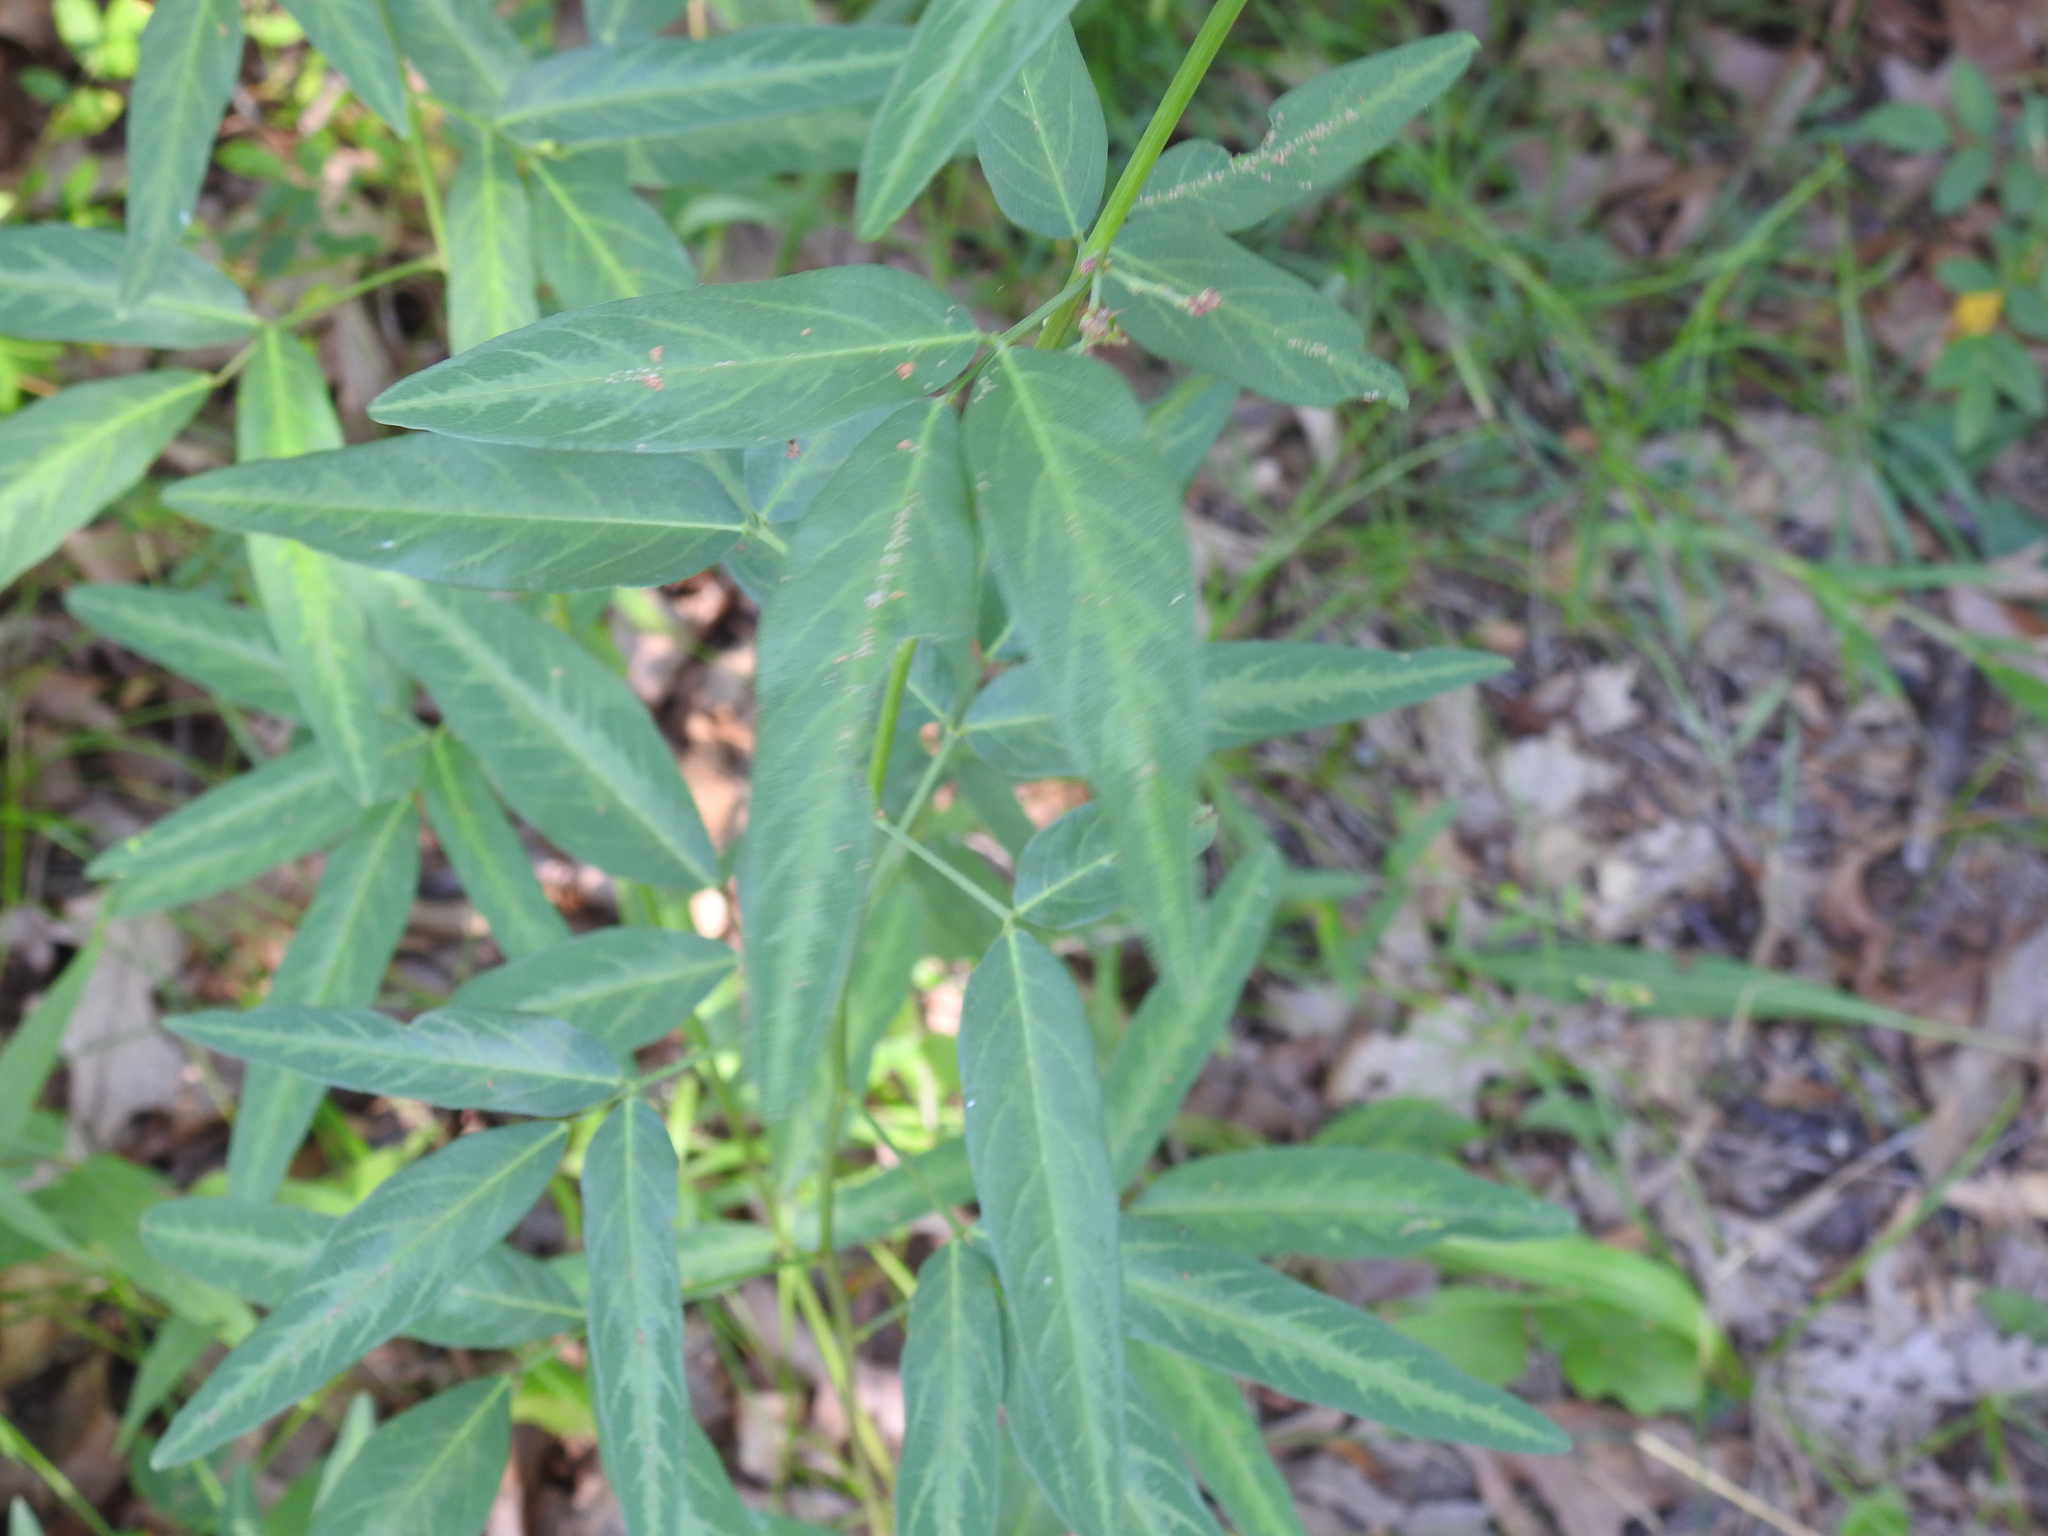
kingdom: Plantae
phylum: Tracheophyta
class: Magnoliopsida
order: Fabales
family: Fabaceae
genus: Desmodium
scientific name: Desmodium paniculatum
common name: Panicled tick-clover
